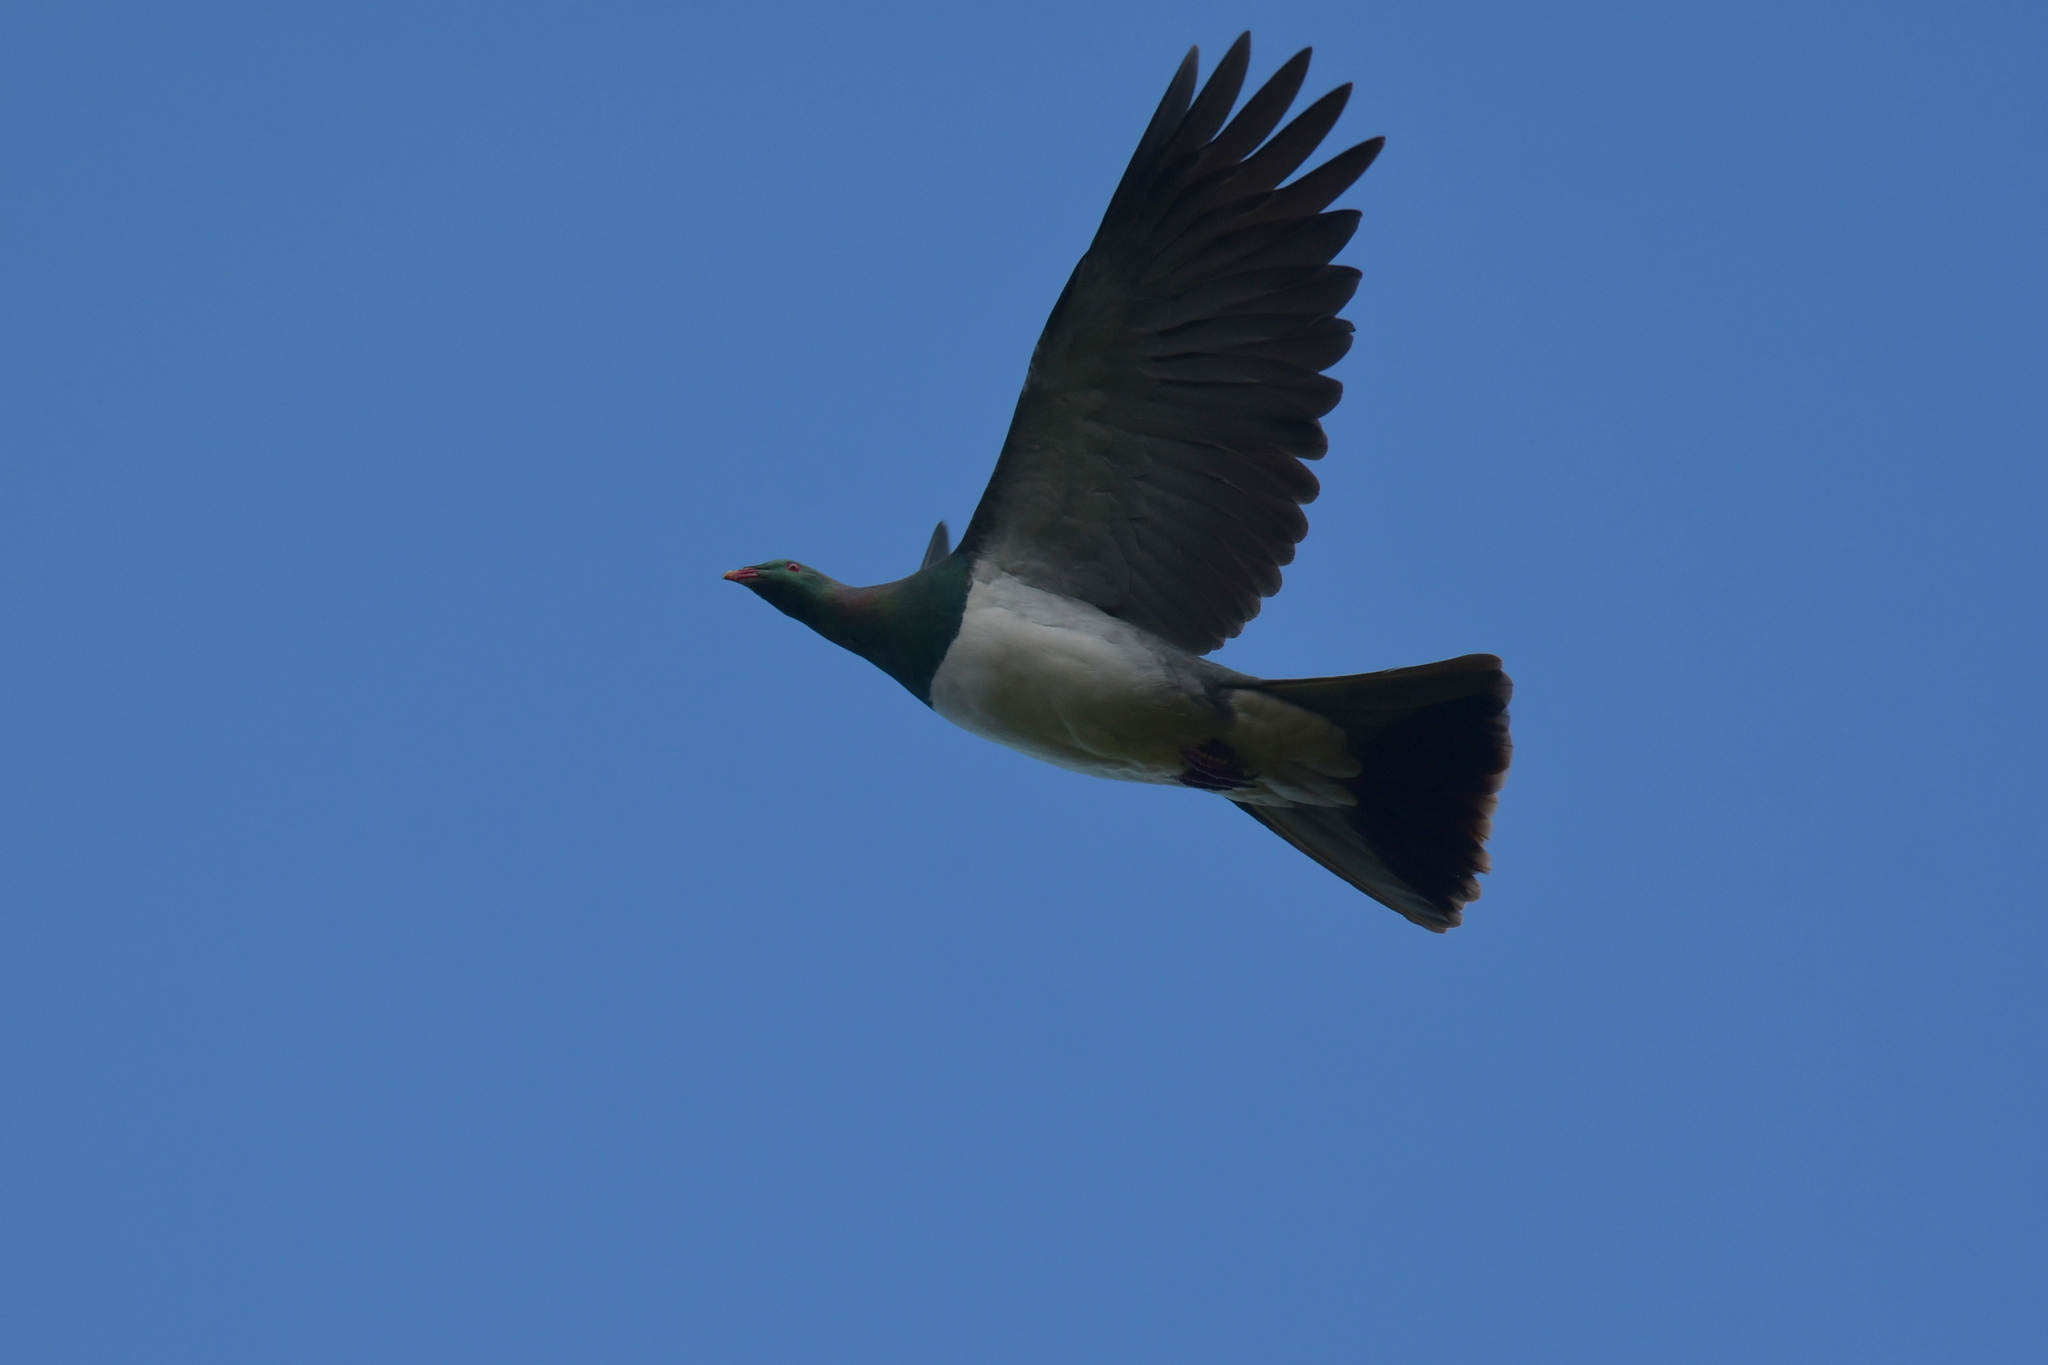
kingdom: Animalia
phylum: Chordata
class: Aves
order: Columbiformes
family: Columbidae
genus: Hemiphaga
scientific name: Hemiphaga novaeseelandiae
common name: New zealand pigeon
